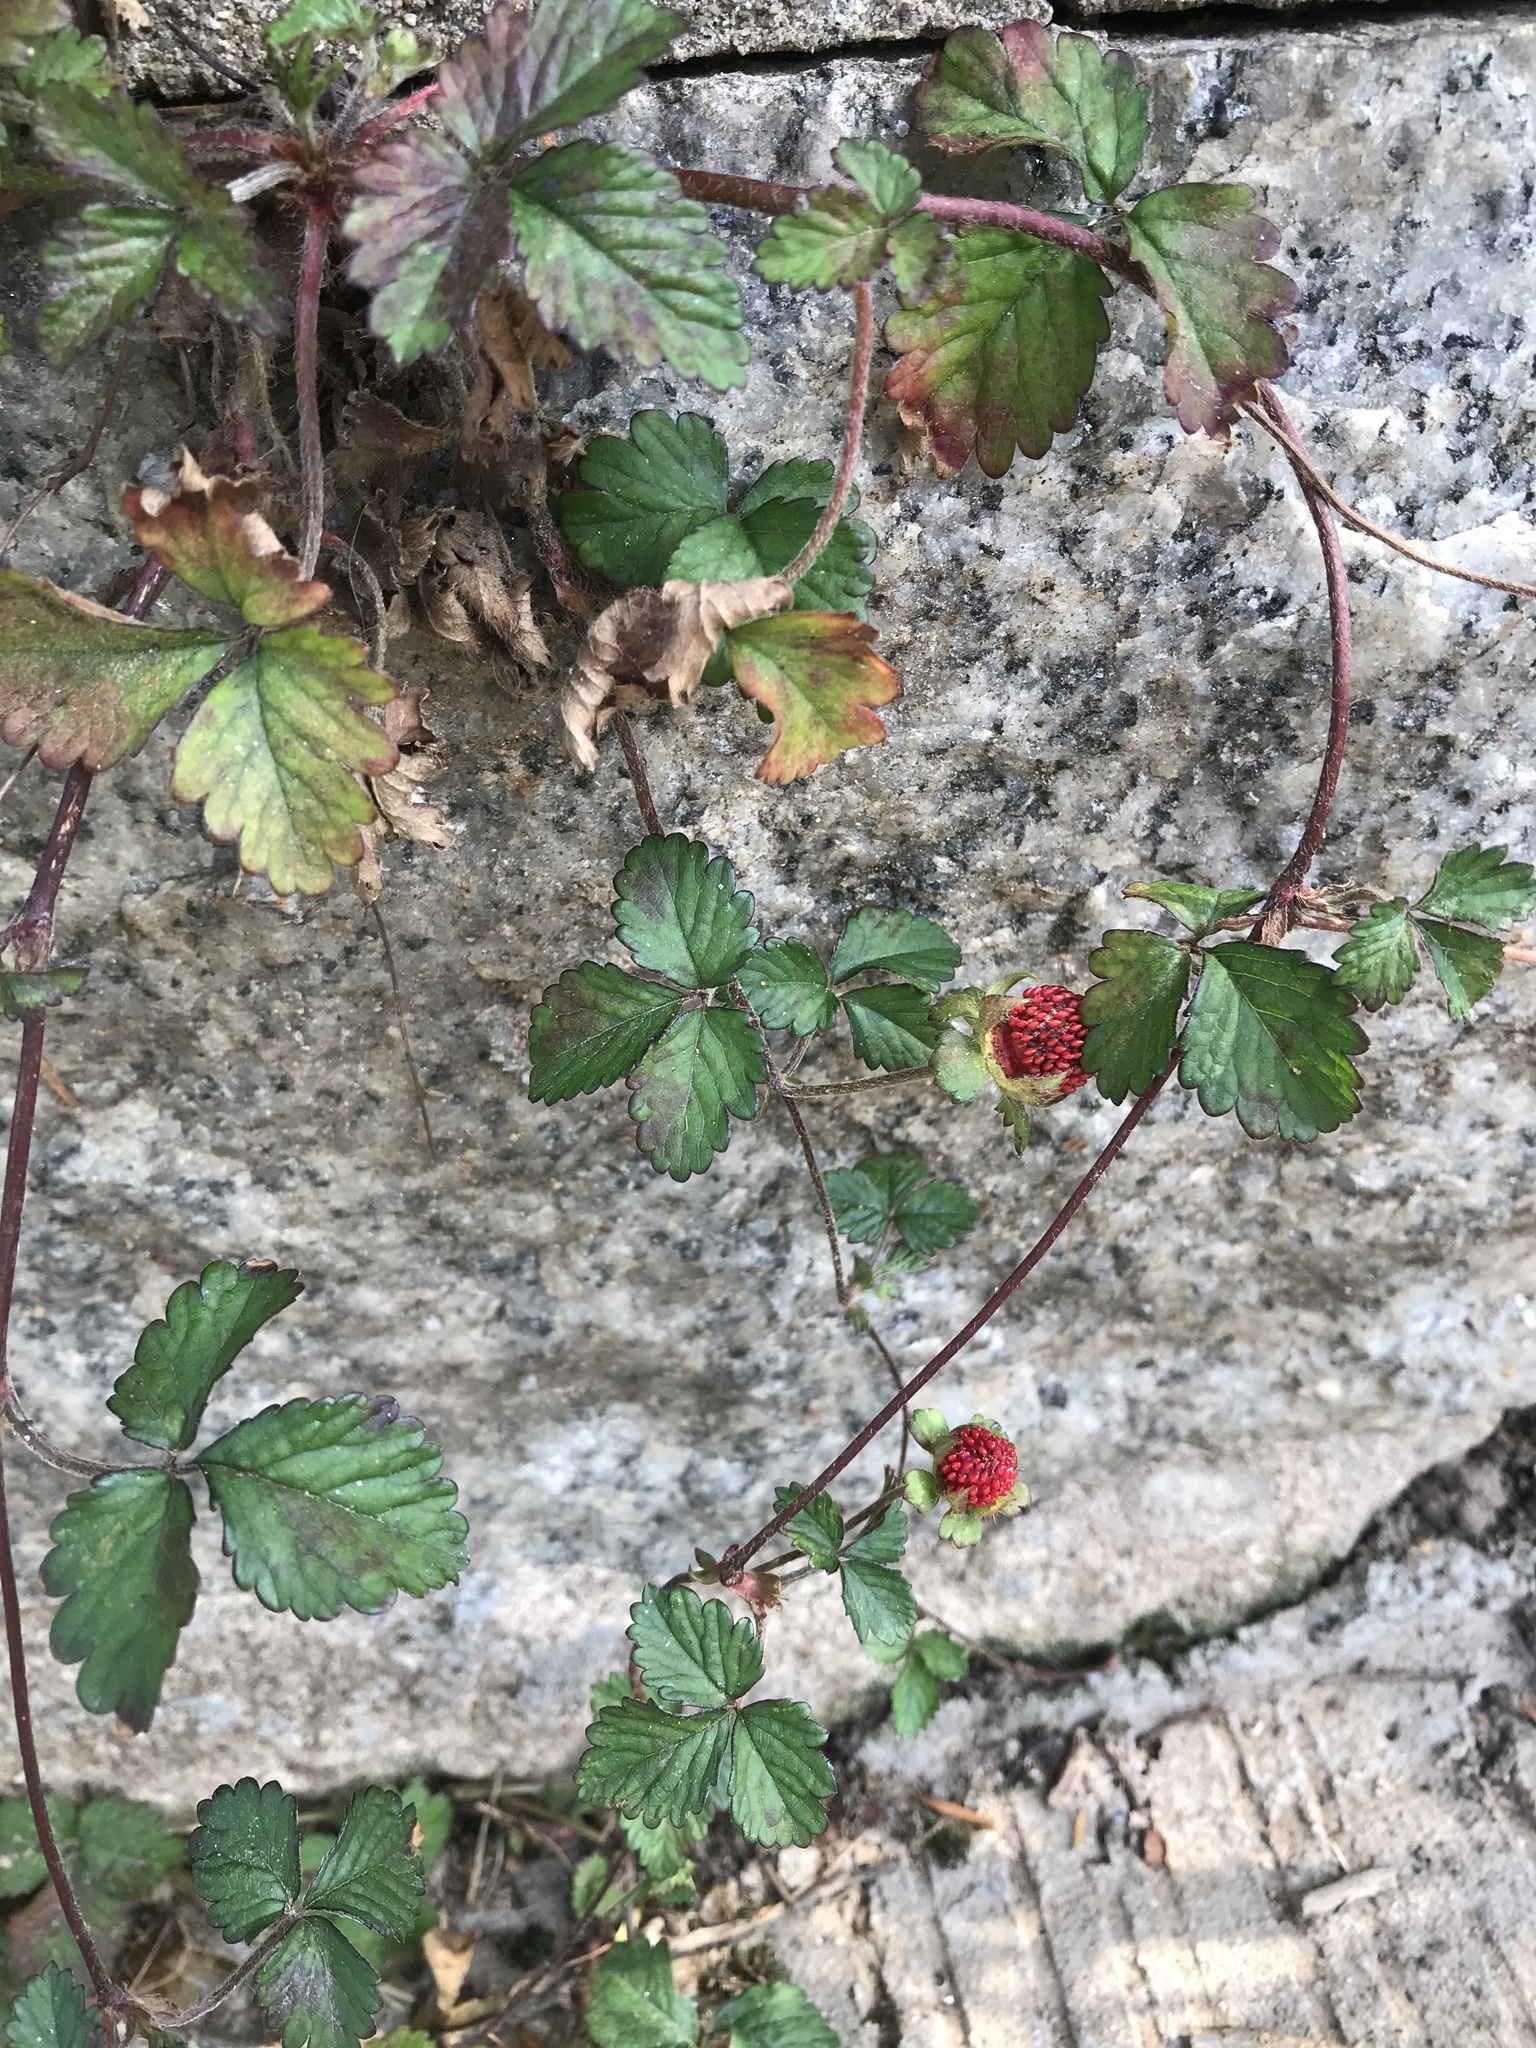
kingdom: Plantae
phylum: Tracheophyta
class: Magnoliopsida
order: Rosales
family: Rosaceae
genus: Potentilla
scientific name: Potentilla indica
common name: Yellow-flowered strawberry
